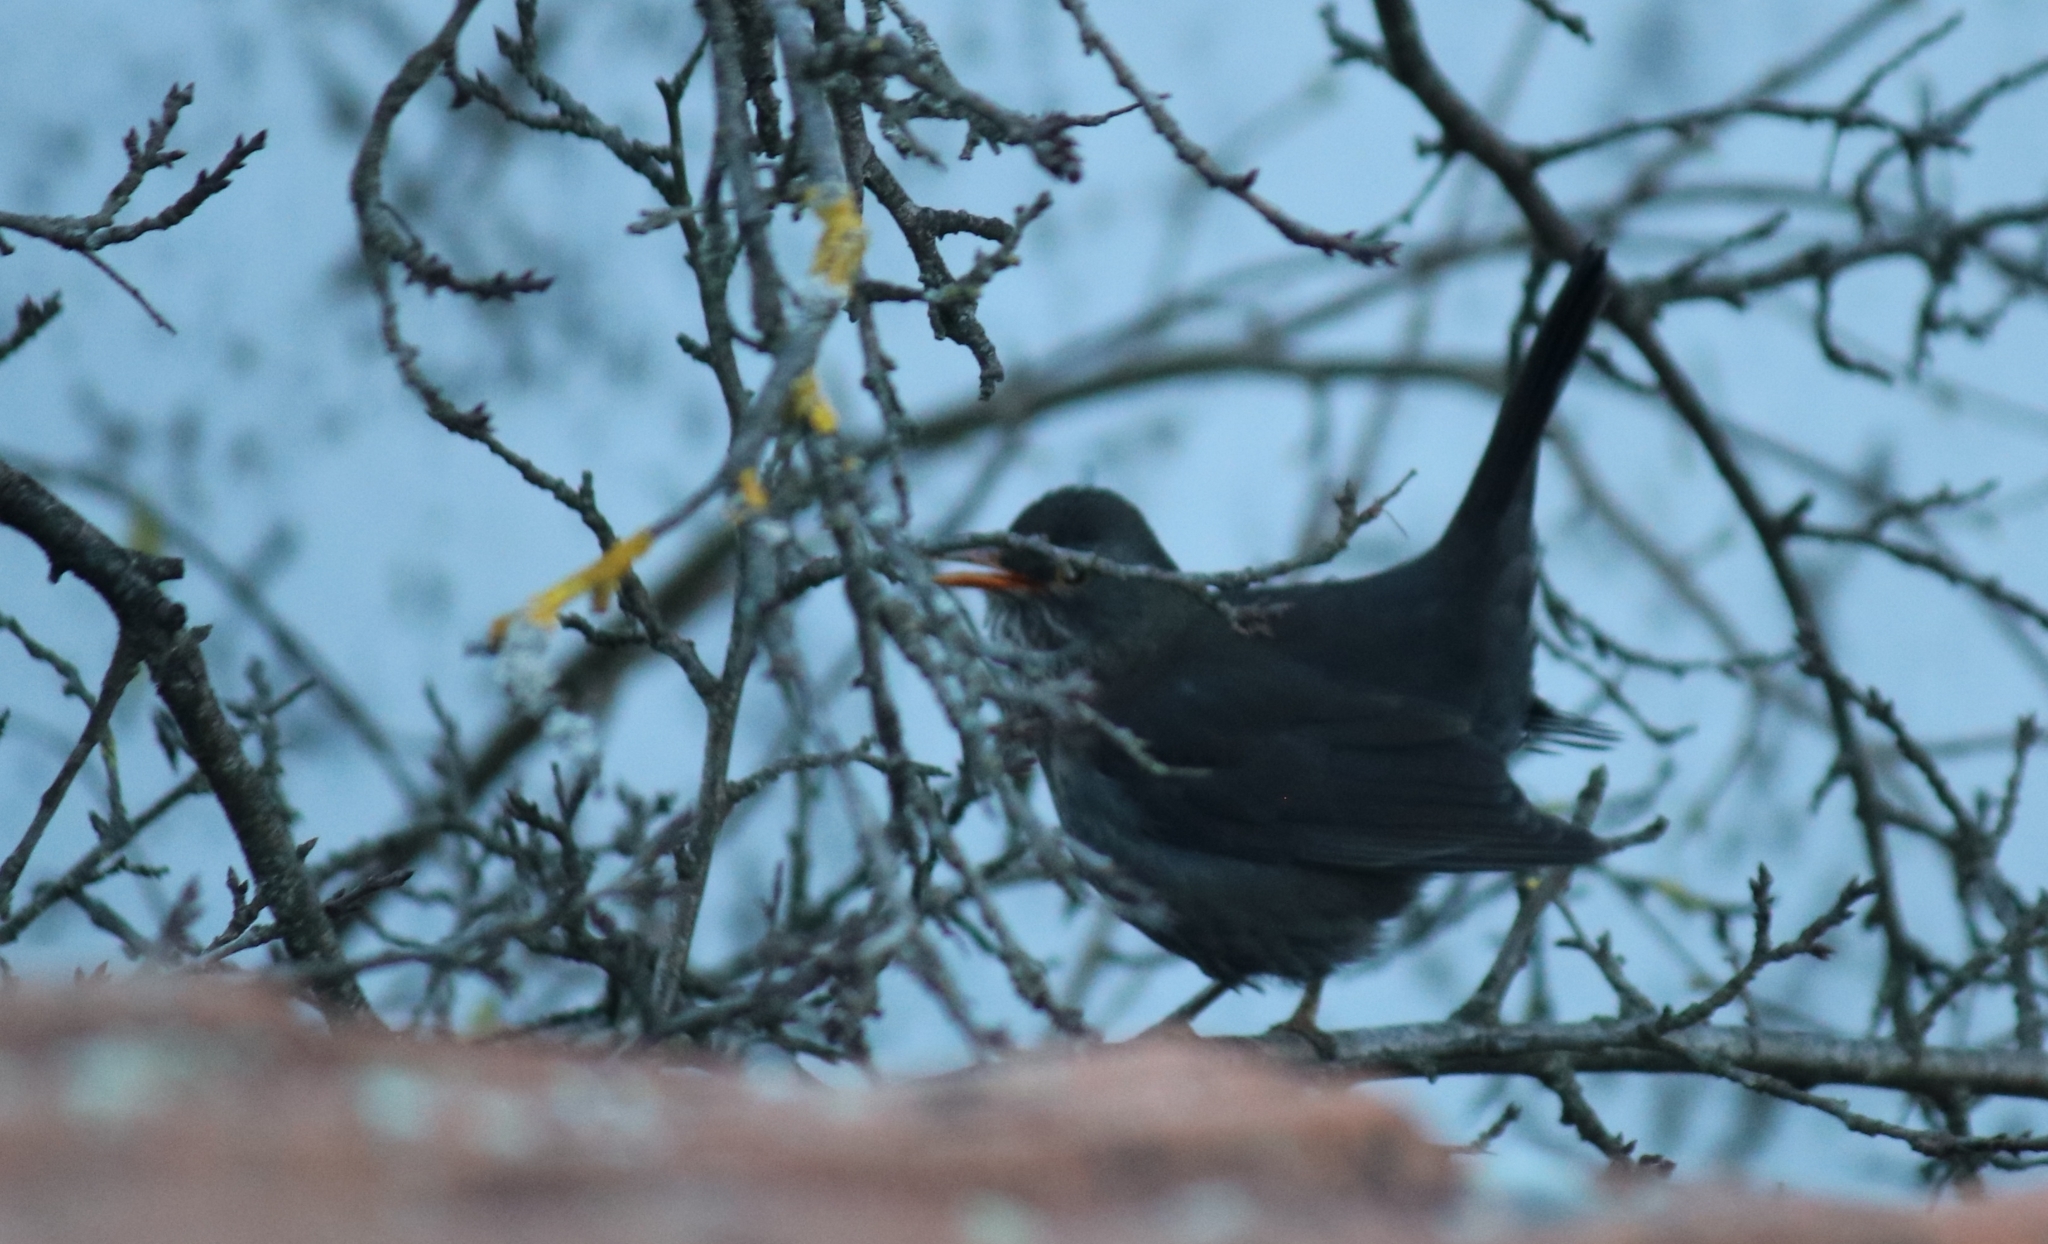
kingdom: Animalia
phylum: Chordata
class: Aves
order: Passeriformes
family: Turdidae
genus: Turdus
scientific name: Turdus merula
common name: Common blackbird
